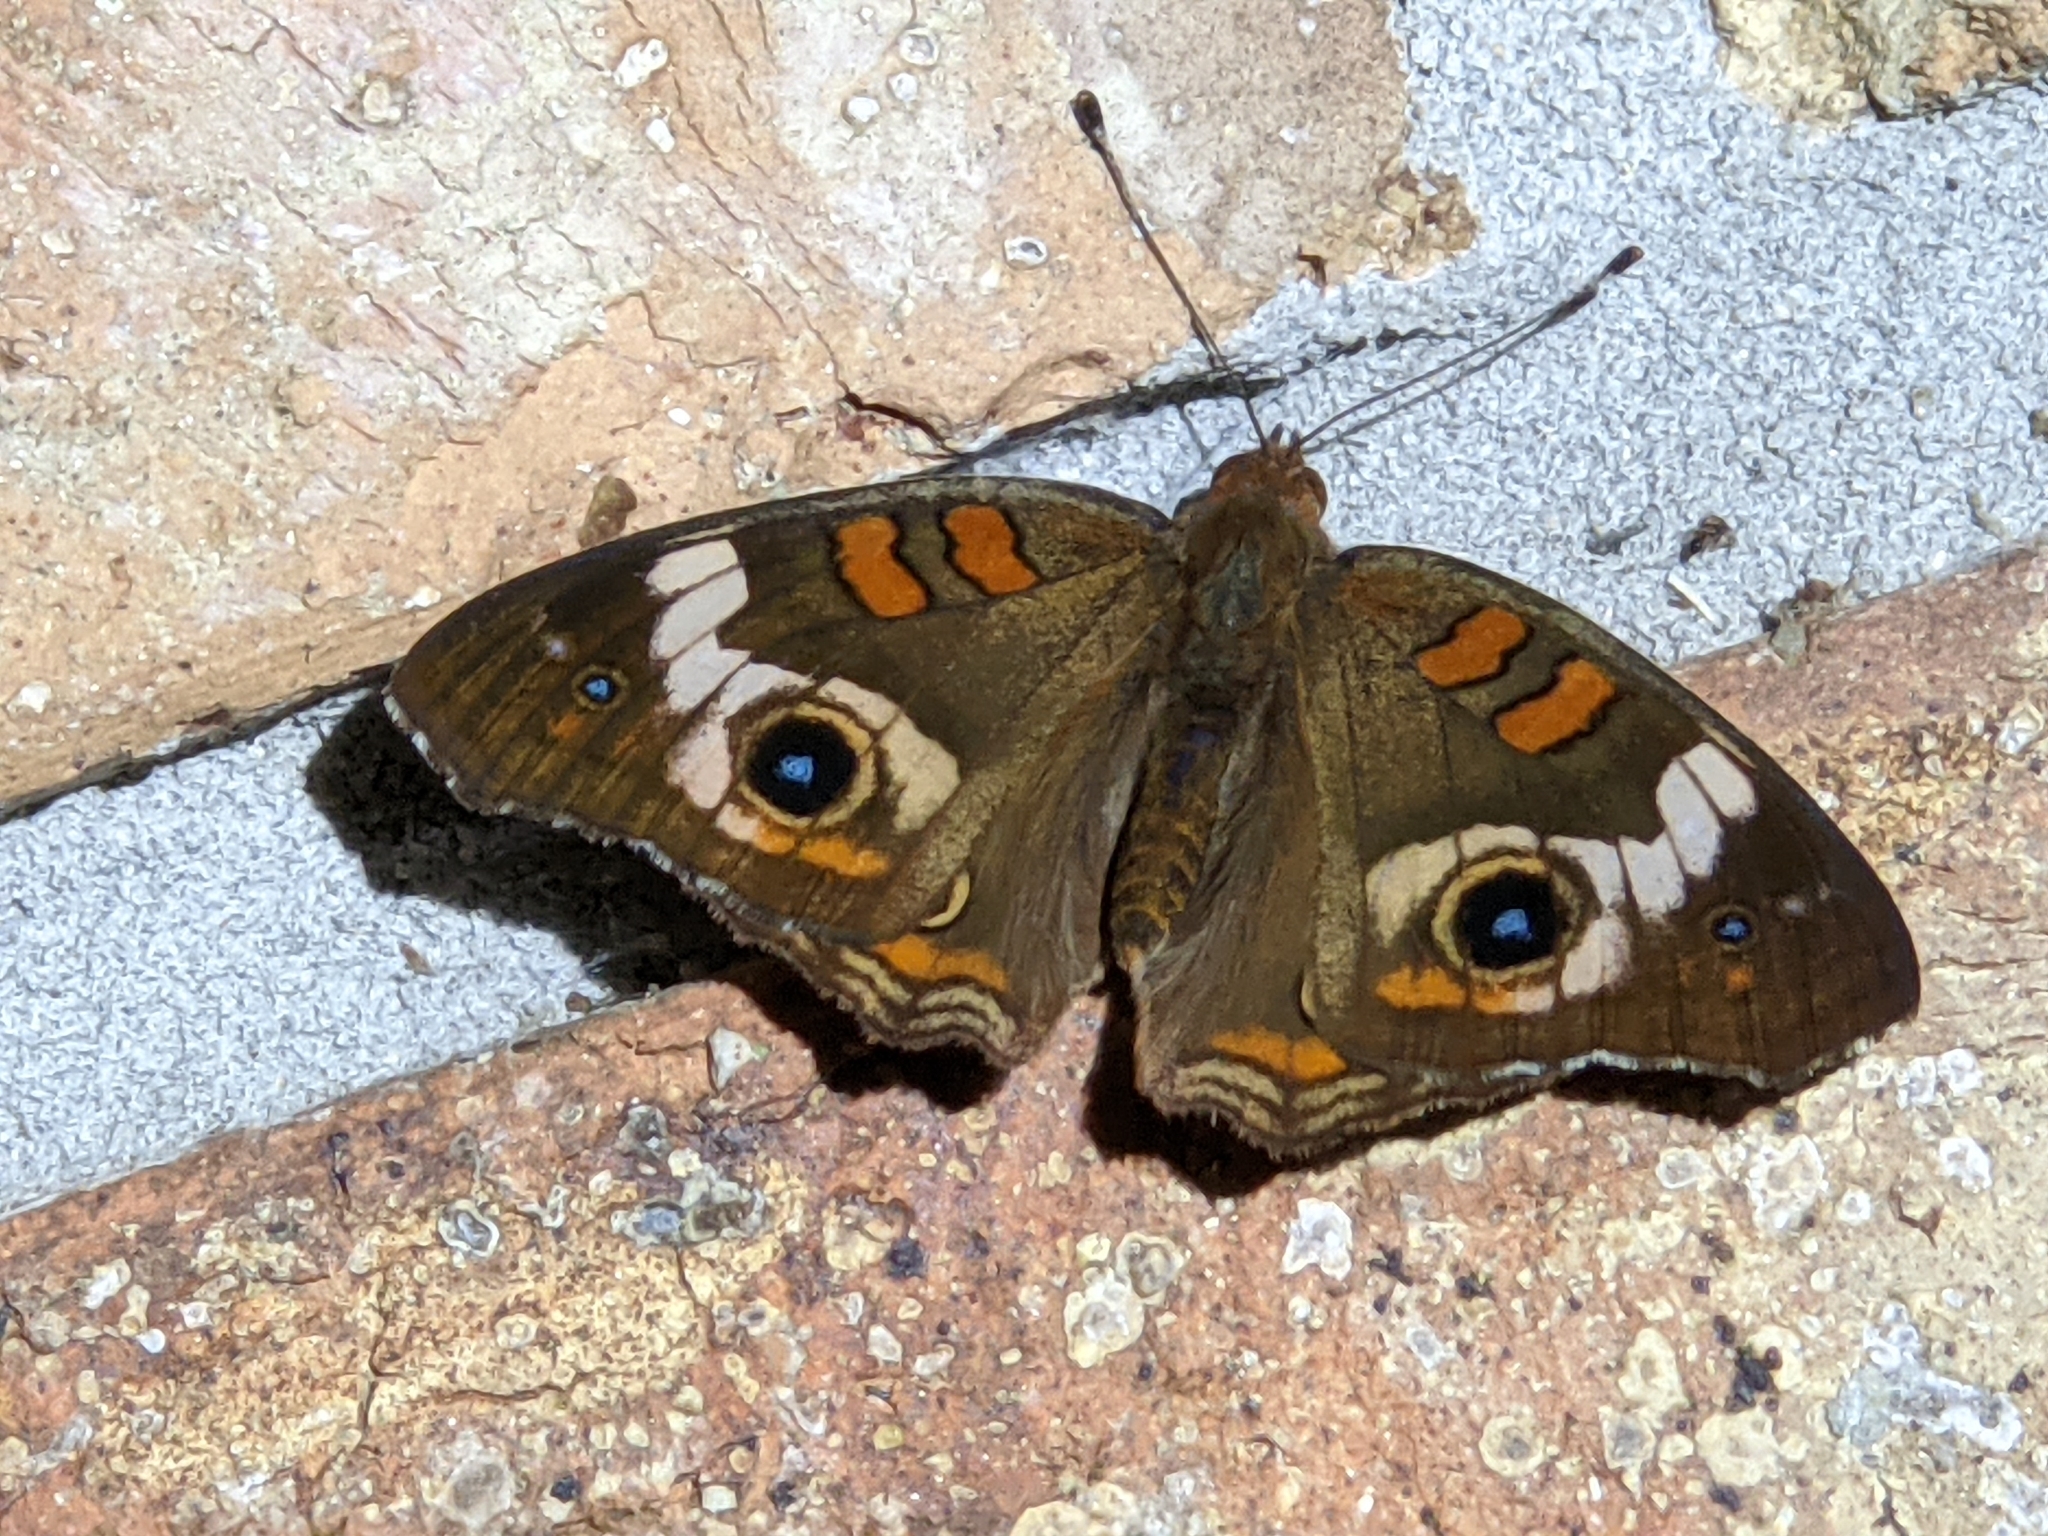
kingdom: Animalia
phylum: Arthropoda
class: Insecta
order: Lepidoptera
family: Nymphalidae
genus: Junonia
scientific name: Junonia coenia
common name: Common buckeye
